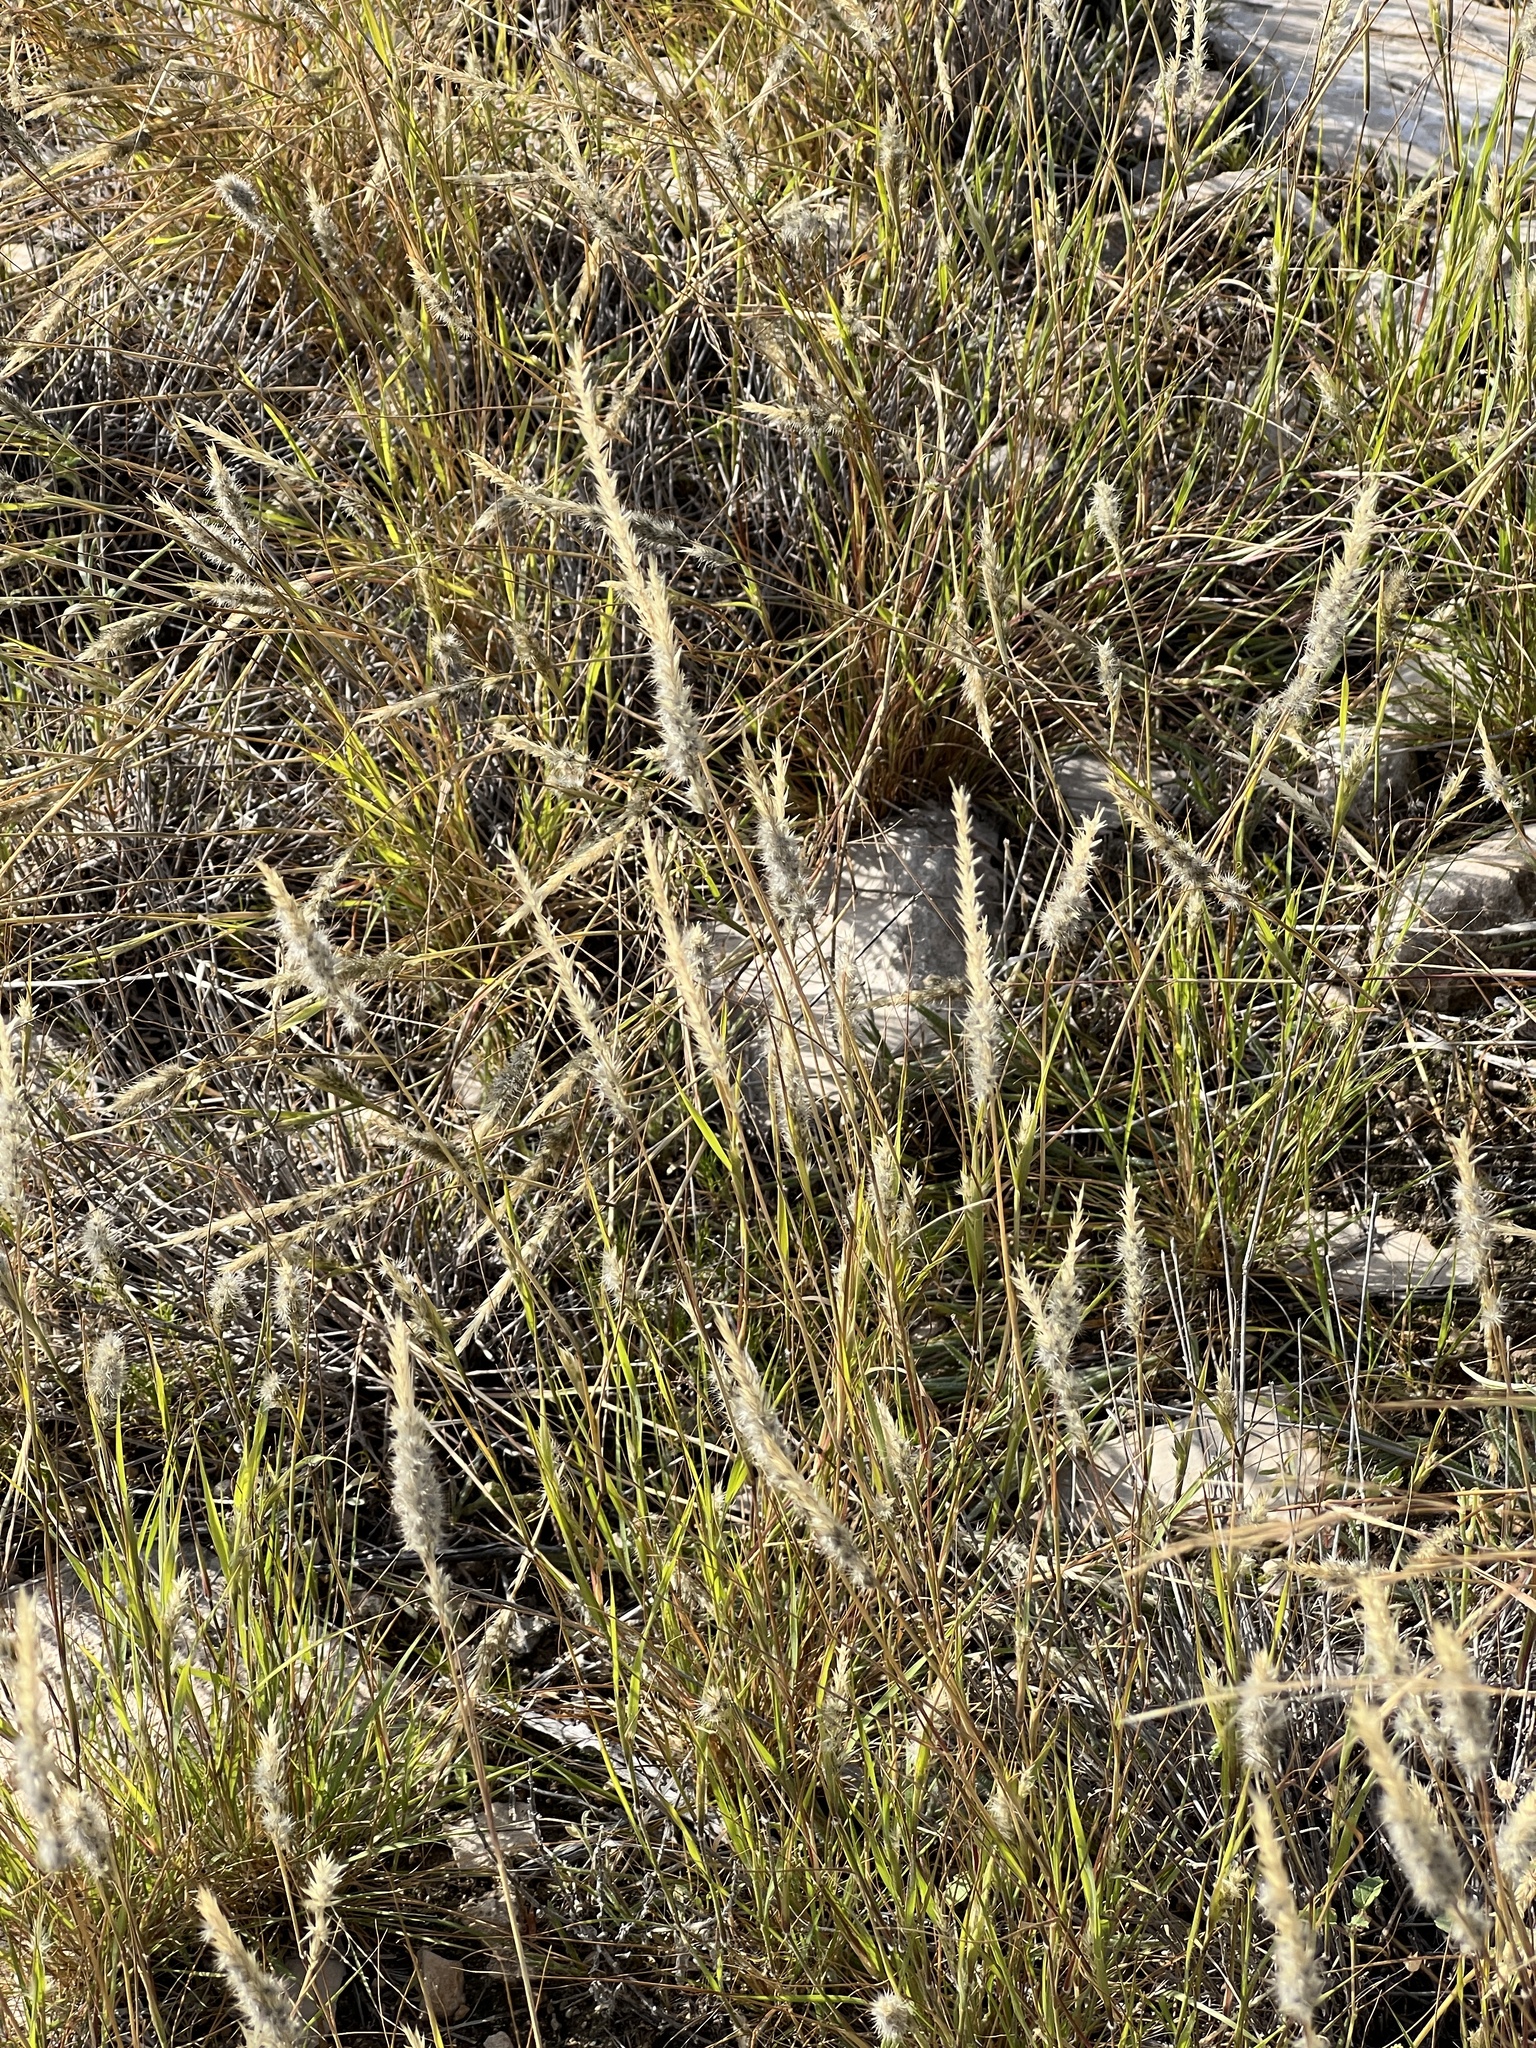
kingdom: Plantae
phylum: Tracheophyta
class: Liliopsida
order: Poales
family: Poaceae
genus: Muhlenbergia
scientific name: Muhlenbergia phleoides
